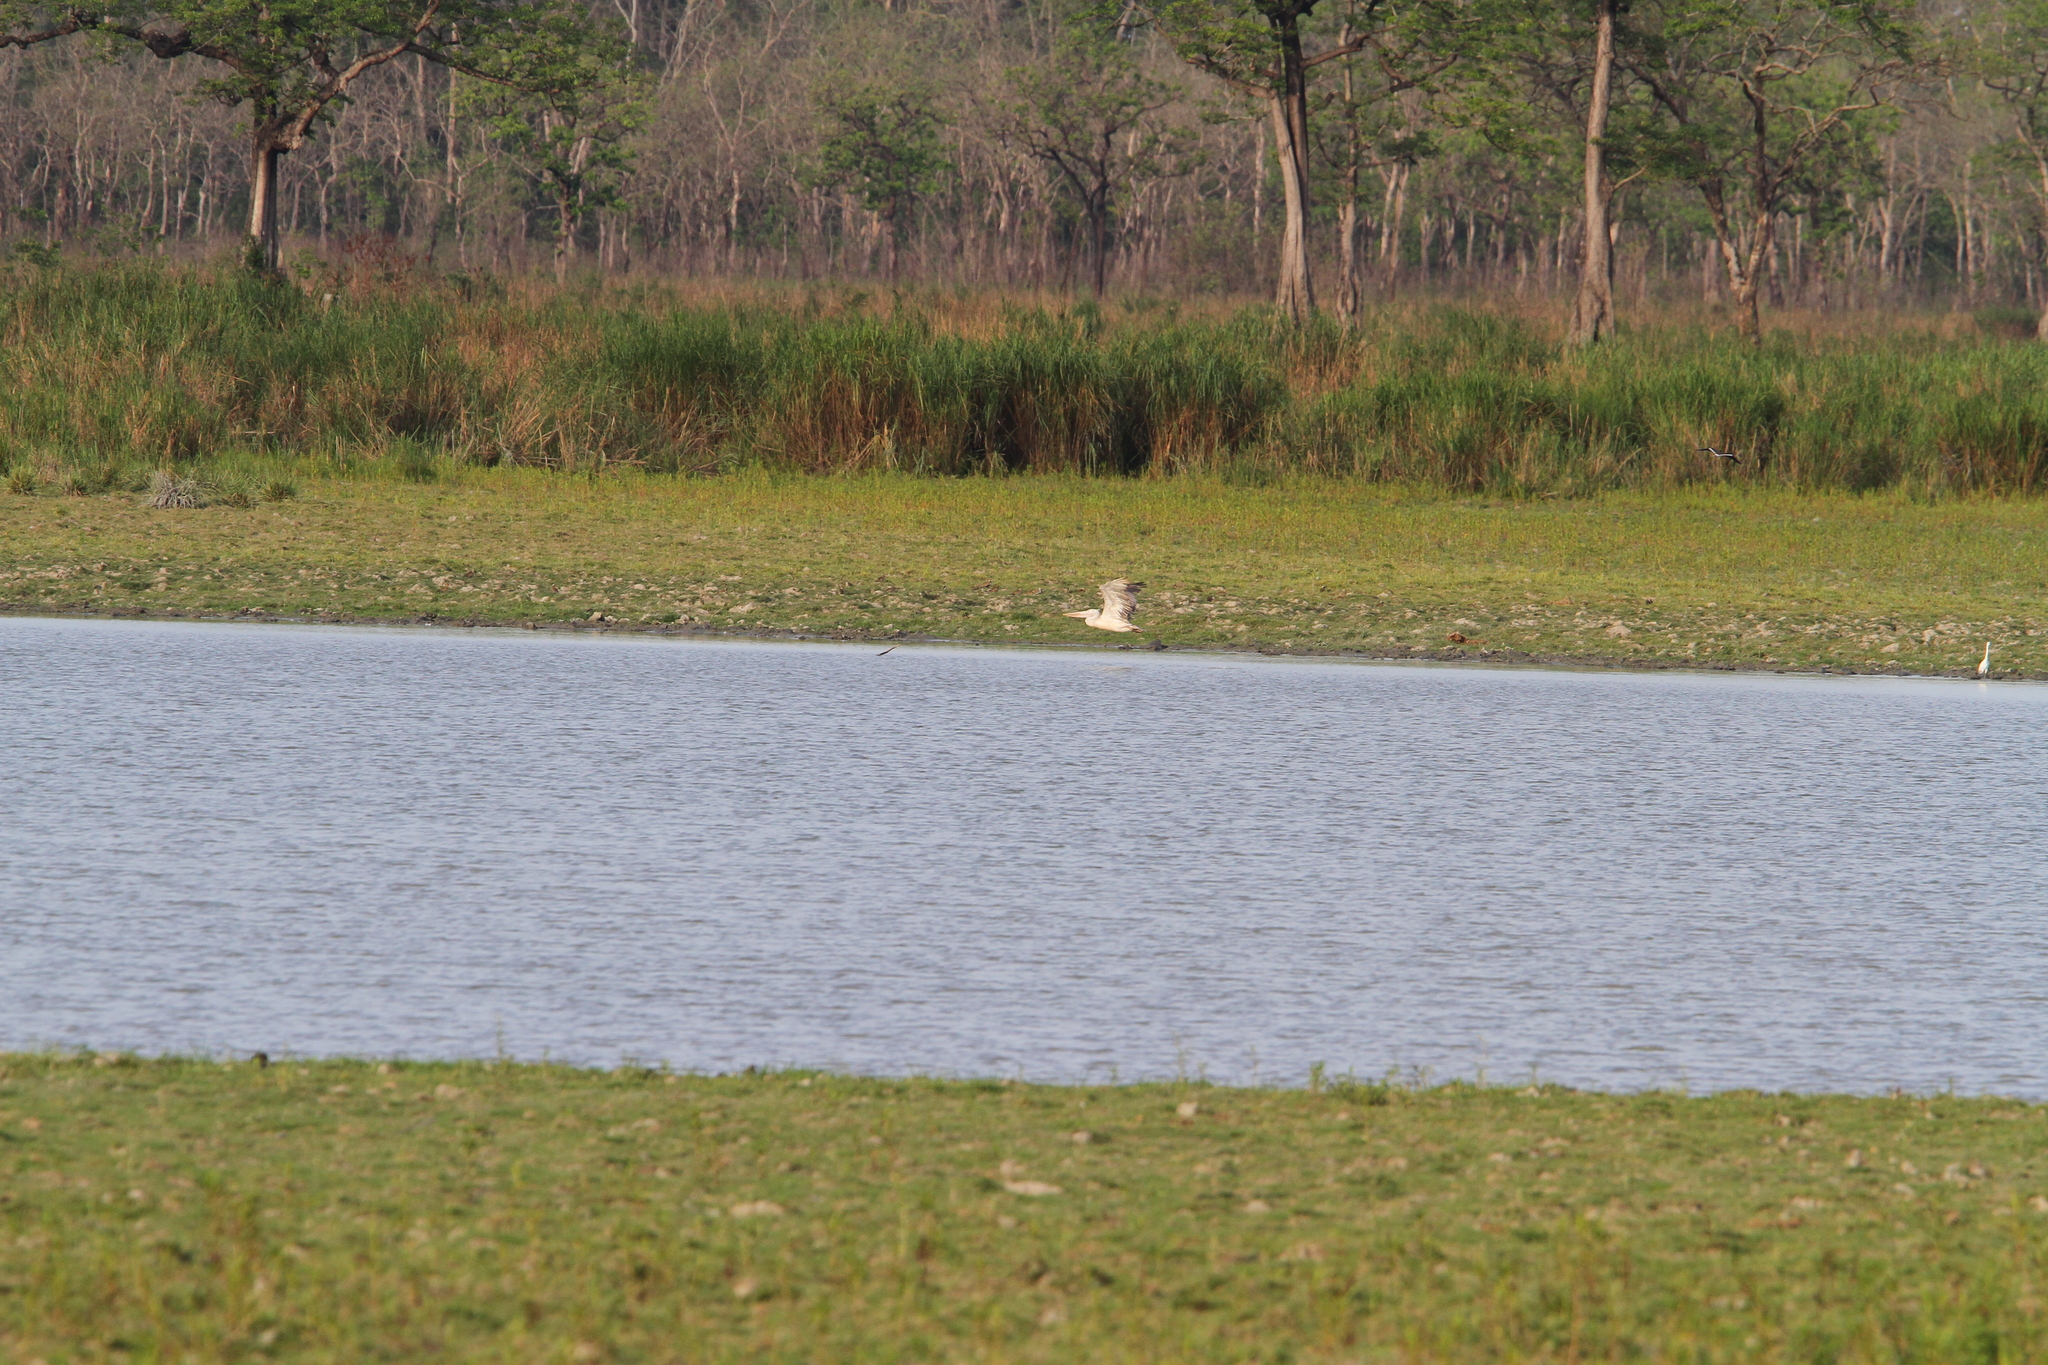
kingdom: Animalia
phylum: Chordata
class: Aves
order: Pelecaniformes
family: Pelecanidae
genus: Pelecanus
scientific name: Pelecanus philippensis
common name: Spot-billed pelican
